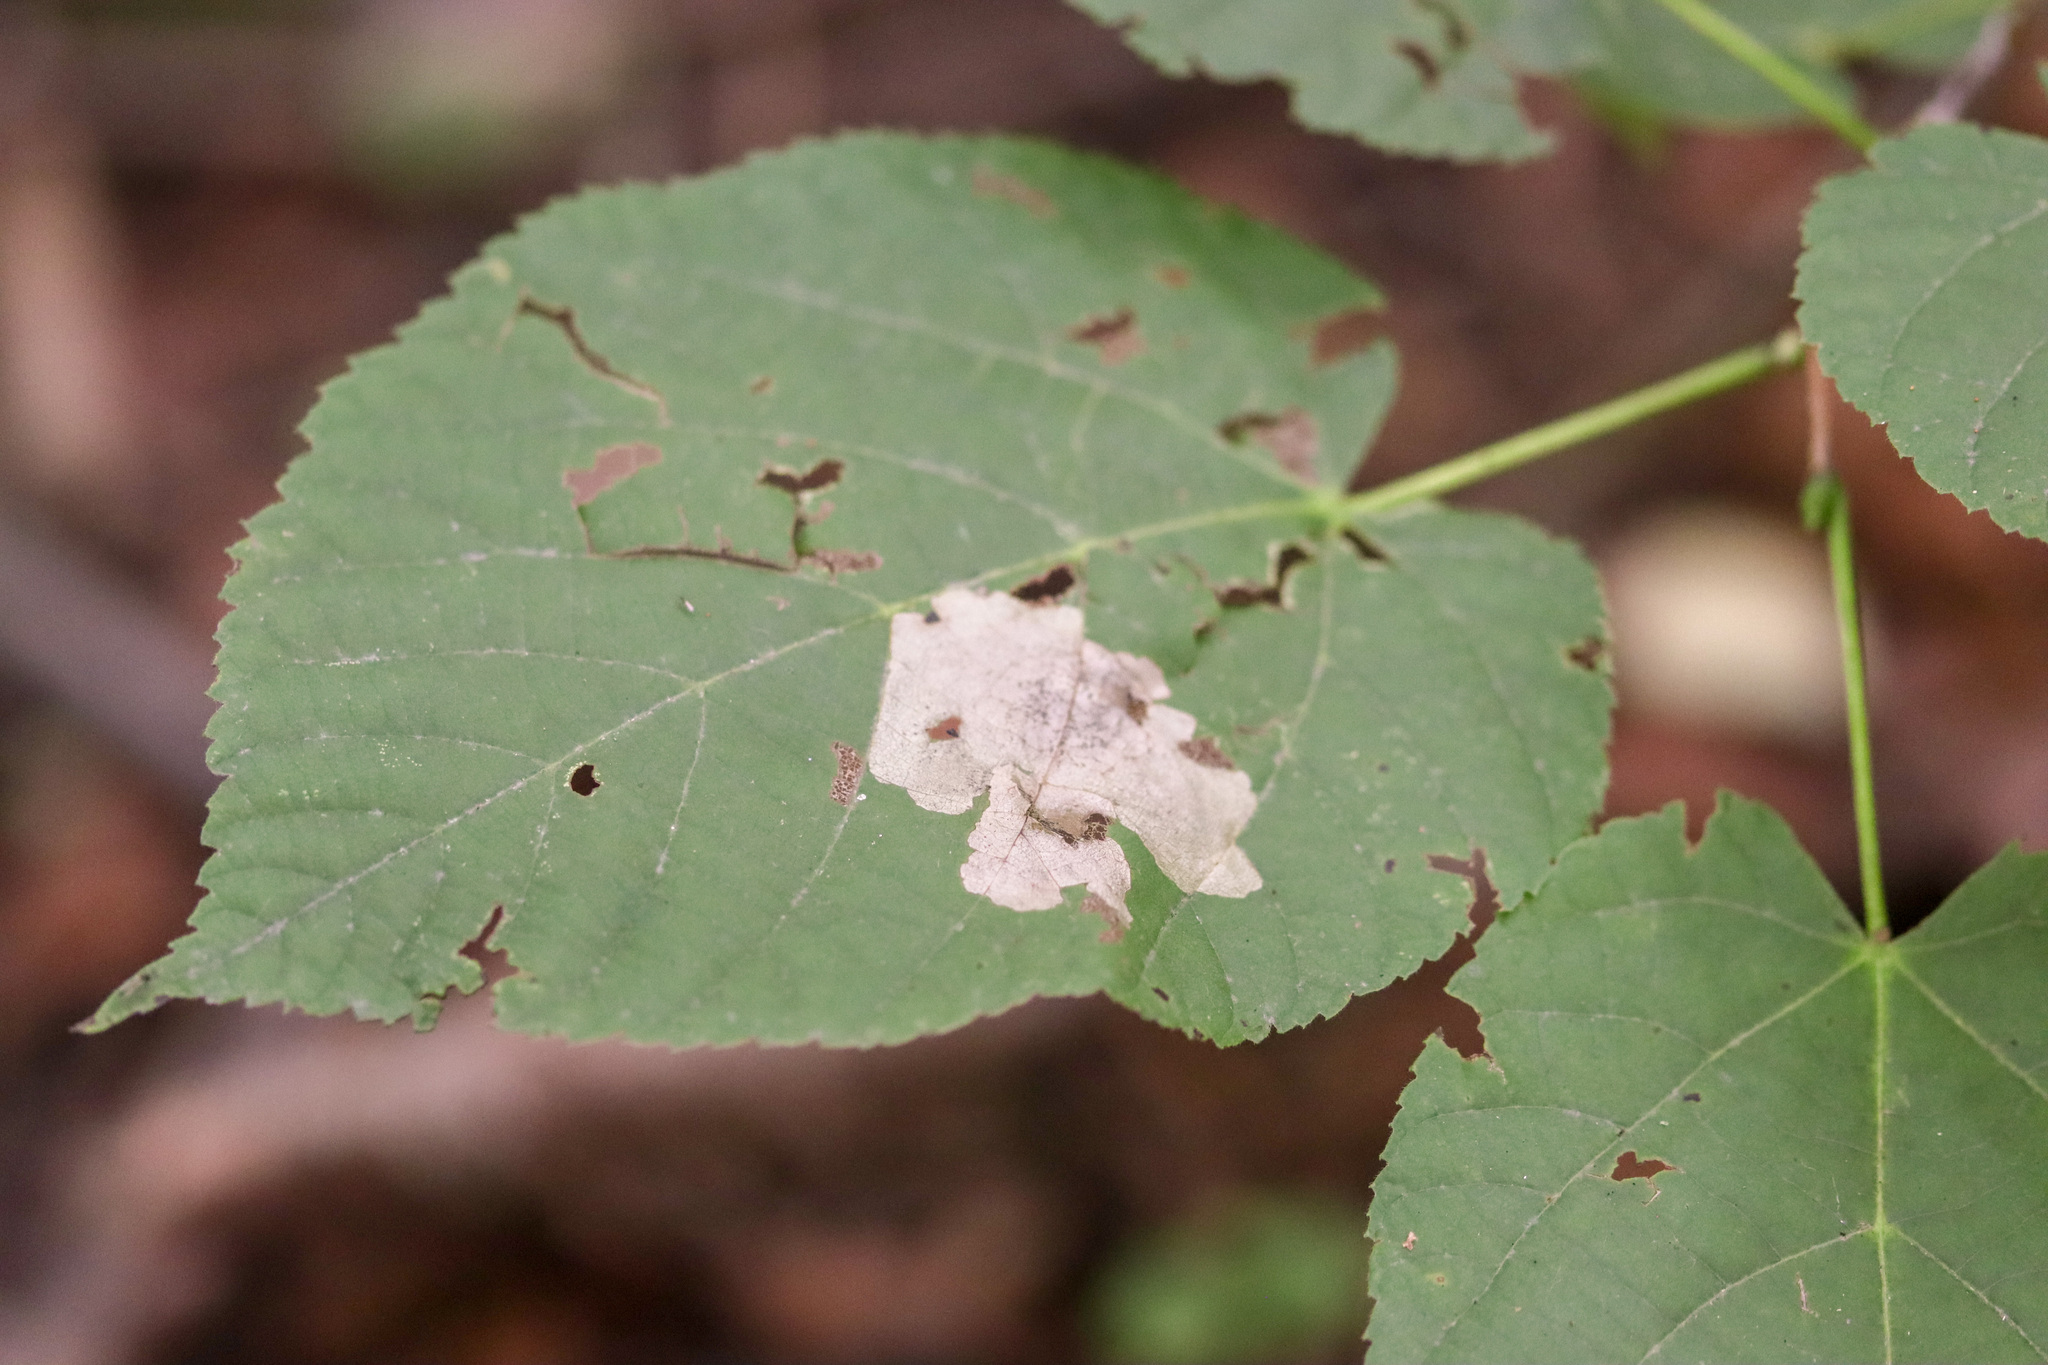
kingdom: Animalia
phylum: Arthropoda
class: Insecta
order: Coleoptera
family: Chrysomelidae
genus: Baliosus
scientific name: Baliosus nervosus
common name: Basswood leaf miner
